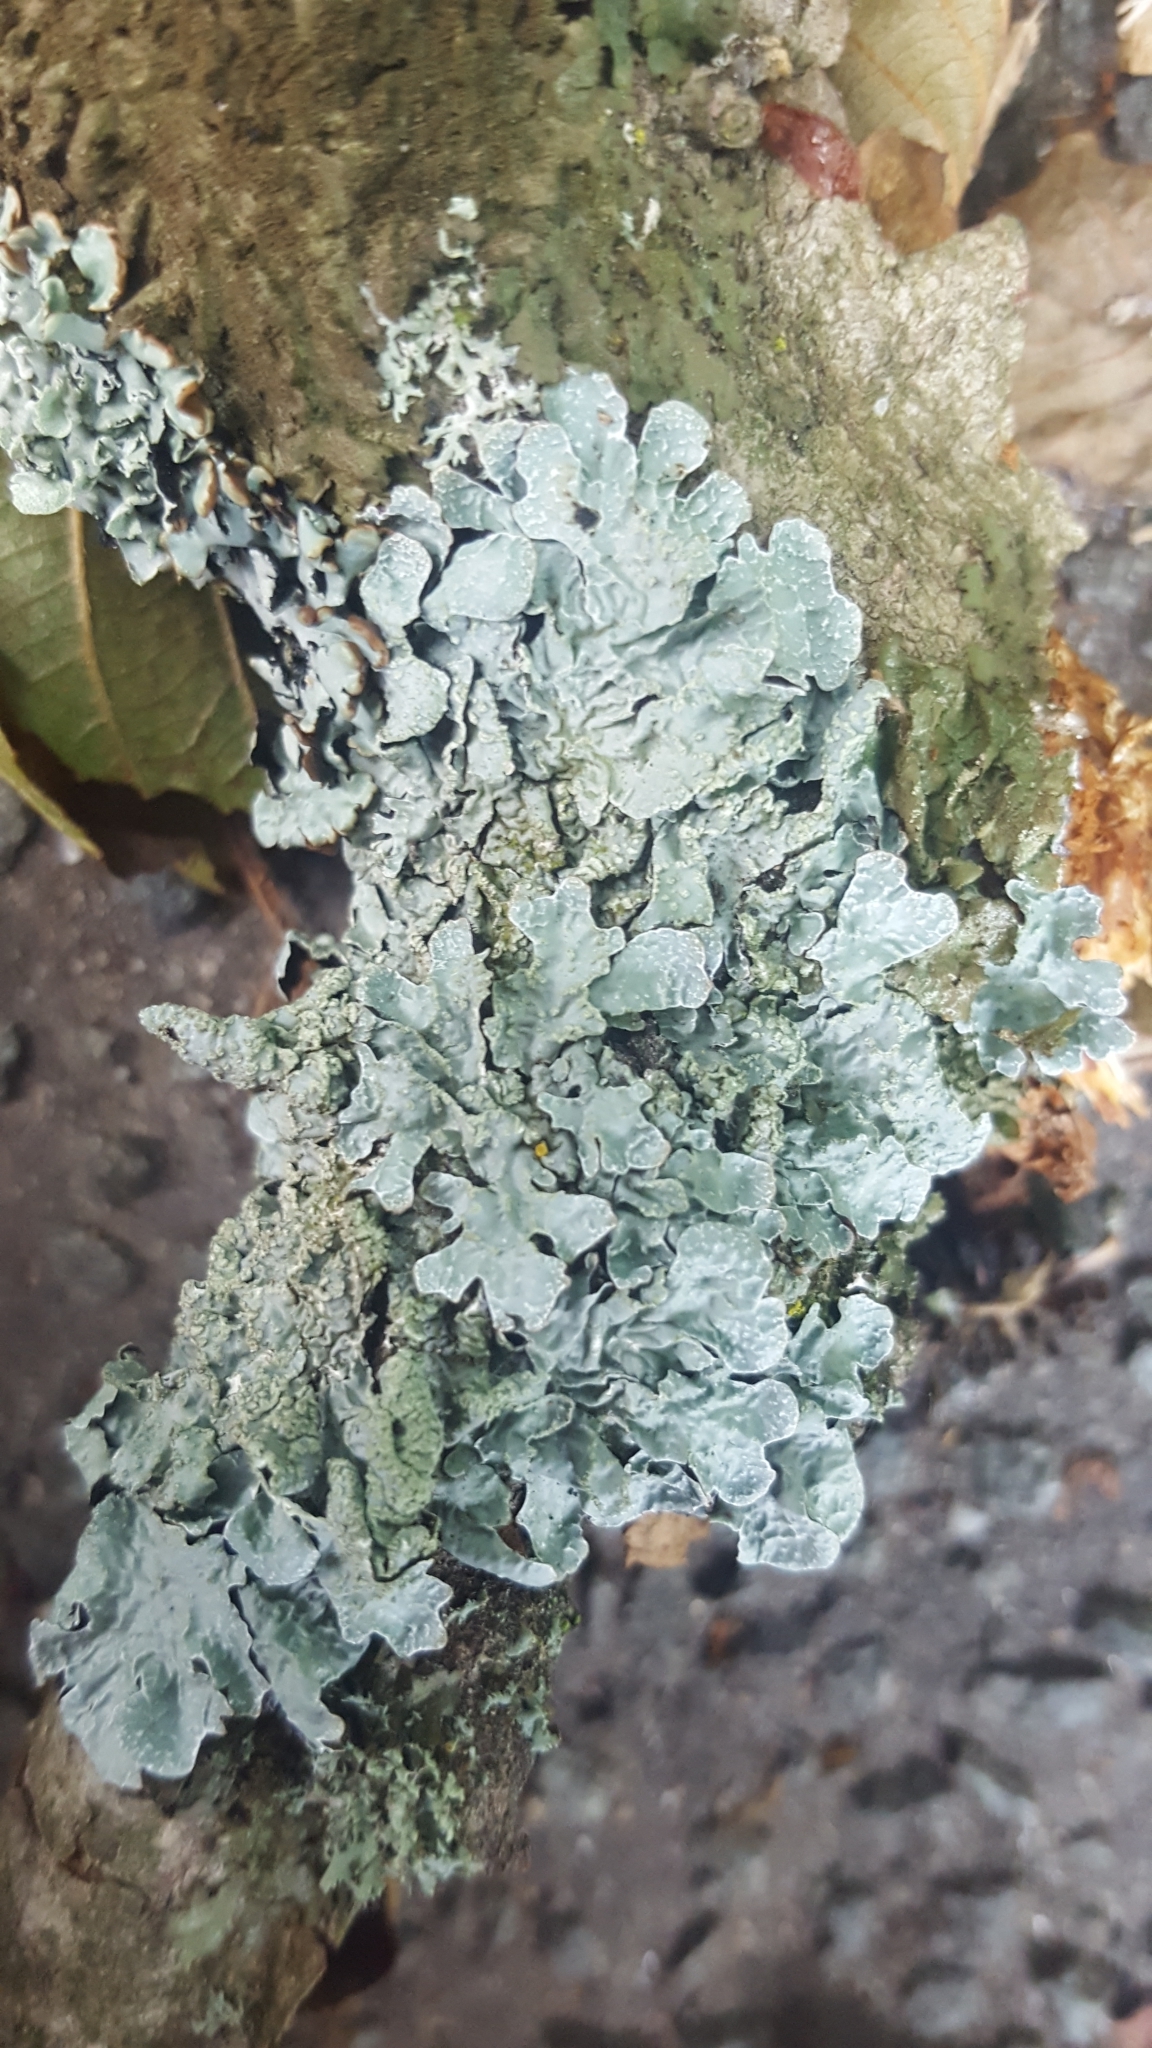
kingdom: Fungi
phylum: Ascomycota
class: Lecanoromycetes
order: Lecanorales
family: Parmeliaceae
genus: Parmelia
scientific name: Parmelia sulcata
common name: Netted shield lichen
